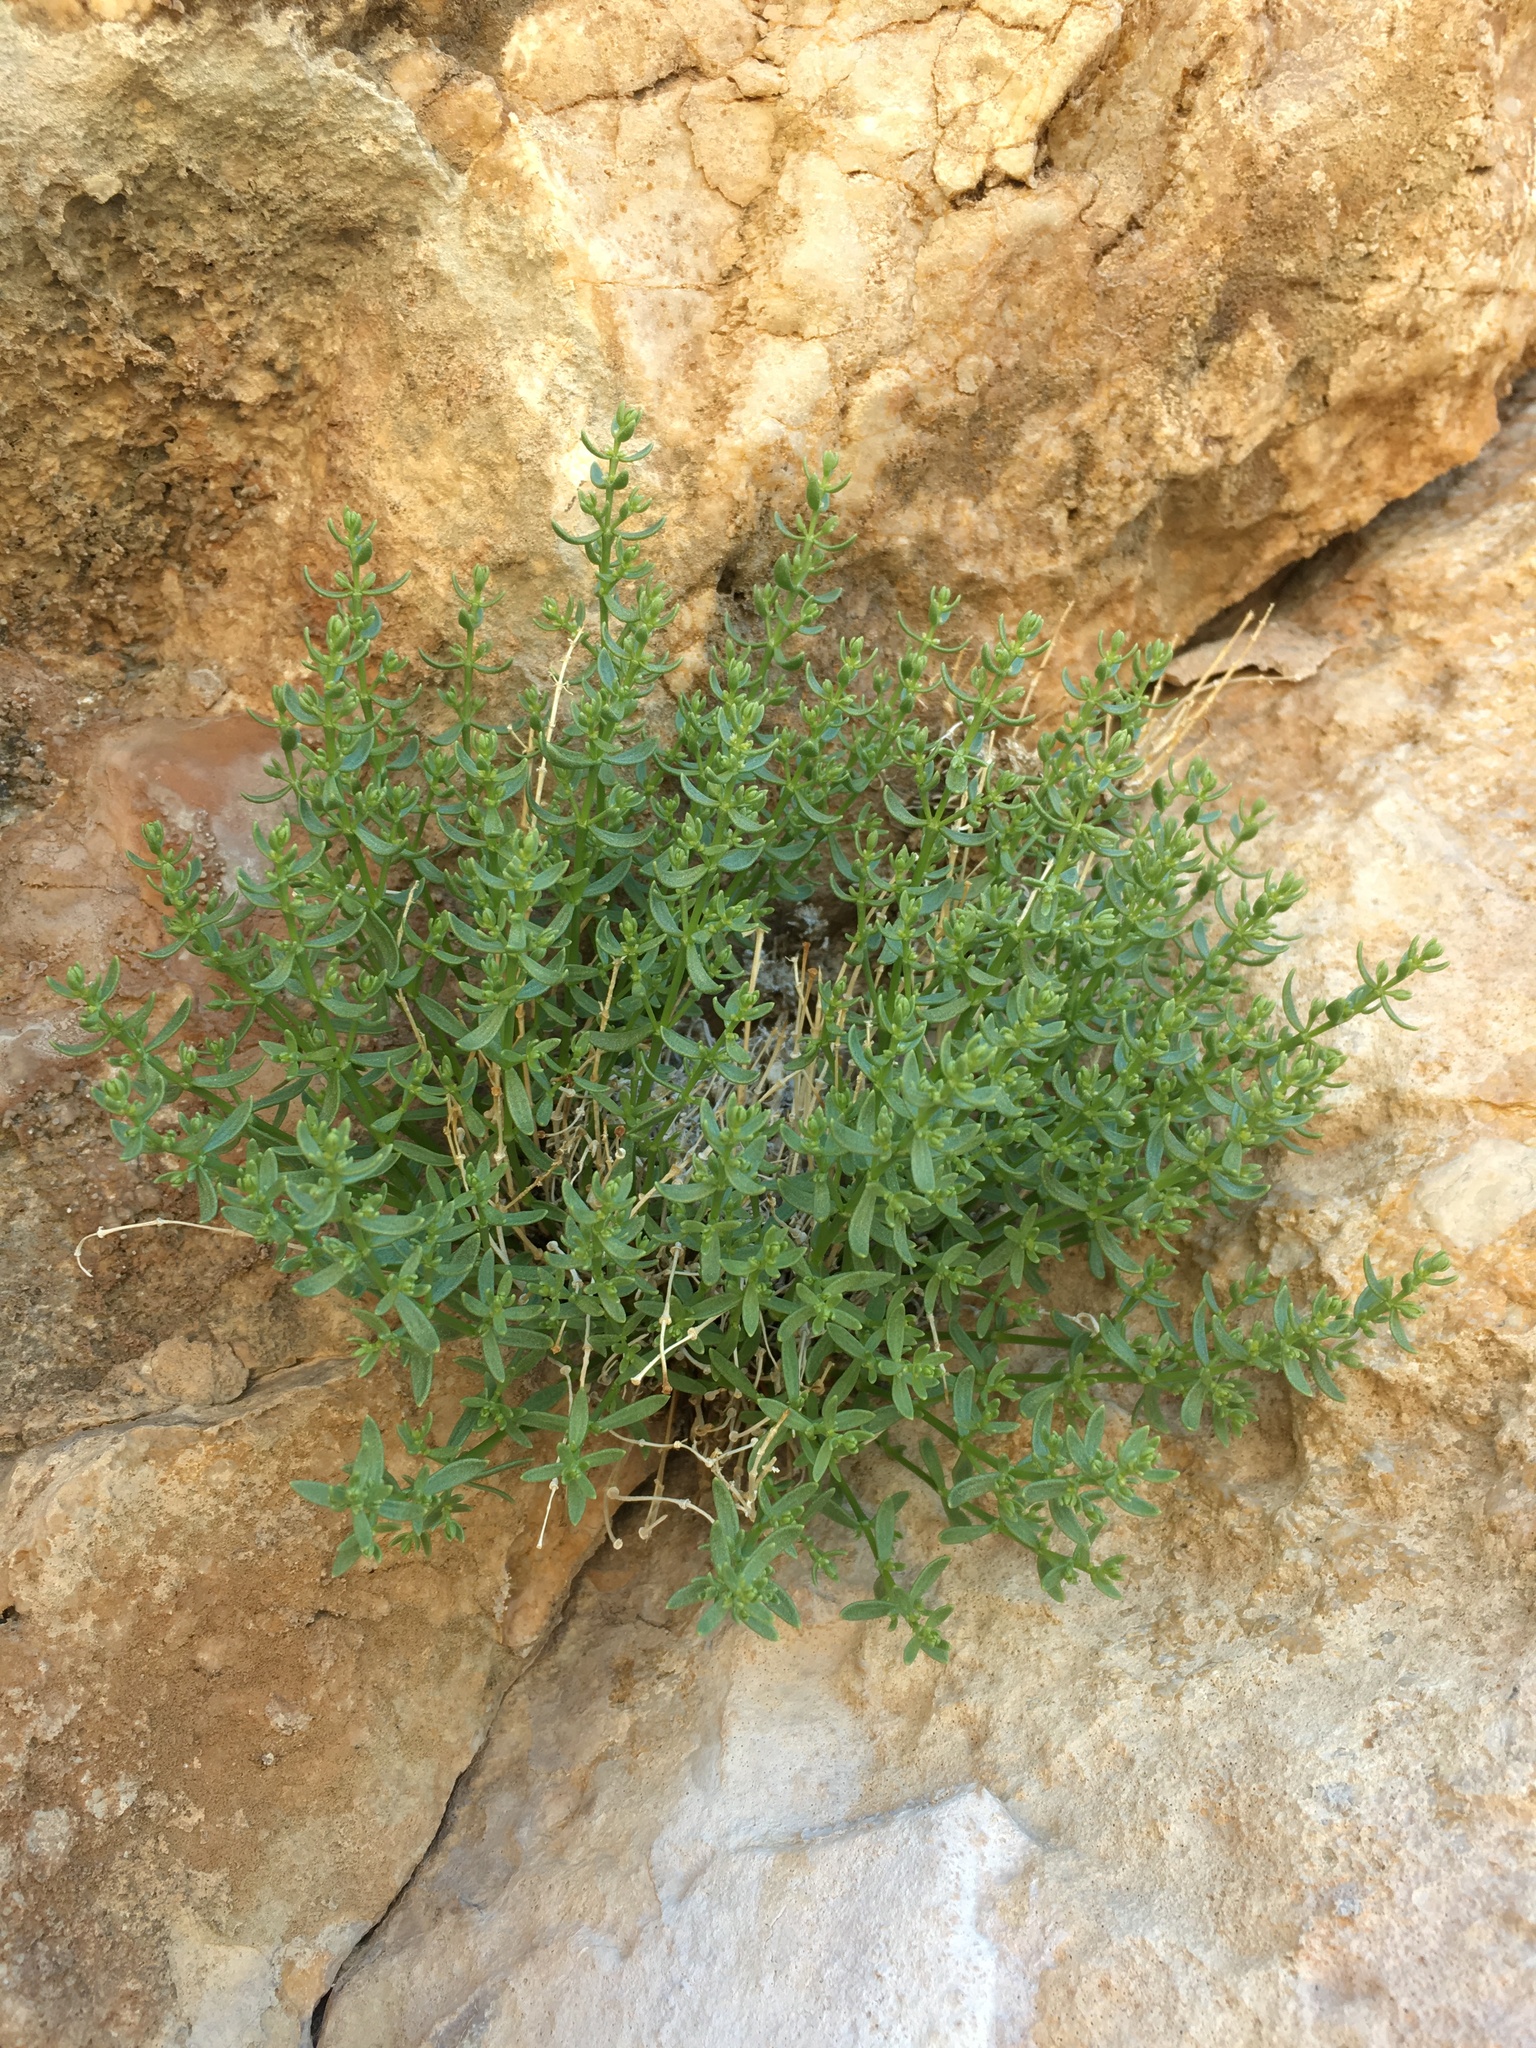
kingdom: Plantae
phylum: Tracheophyta
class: Magnoliopsida
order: Caryophyllales
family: Caryophyllaceae
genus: Scopulophila
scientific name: Scopulophila rixfordii
